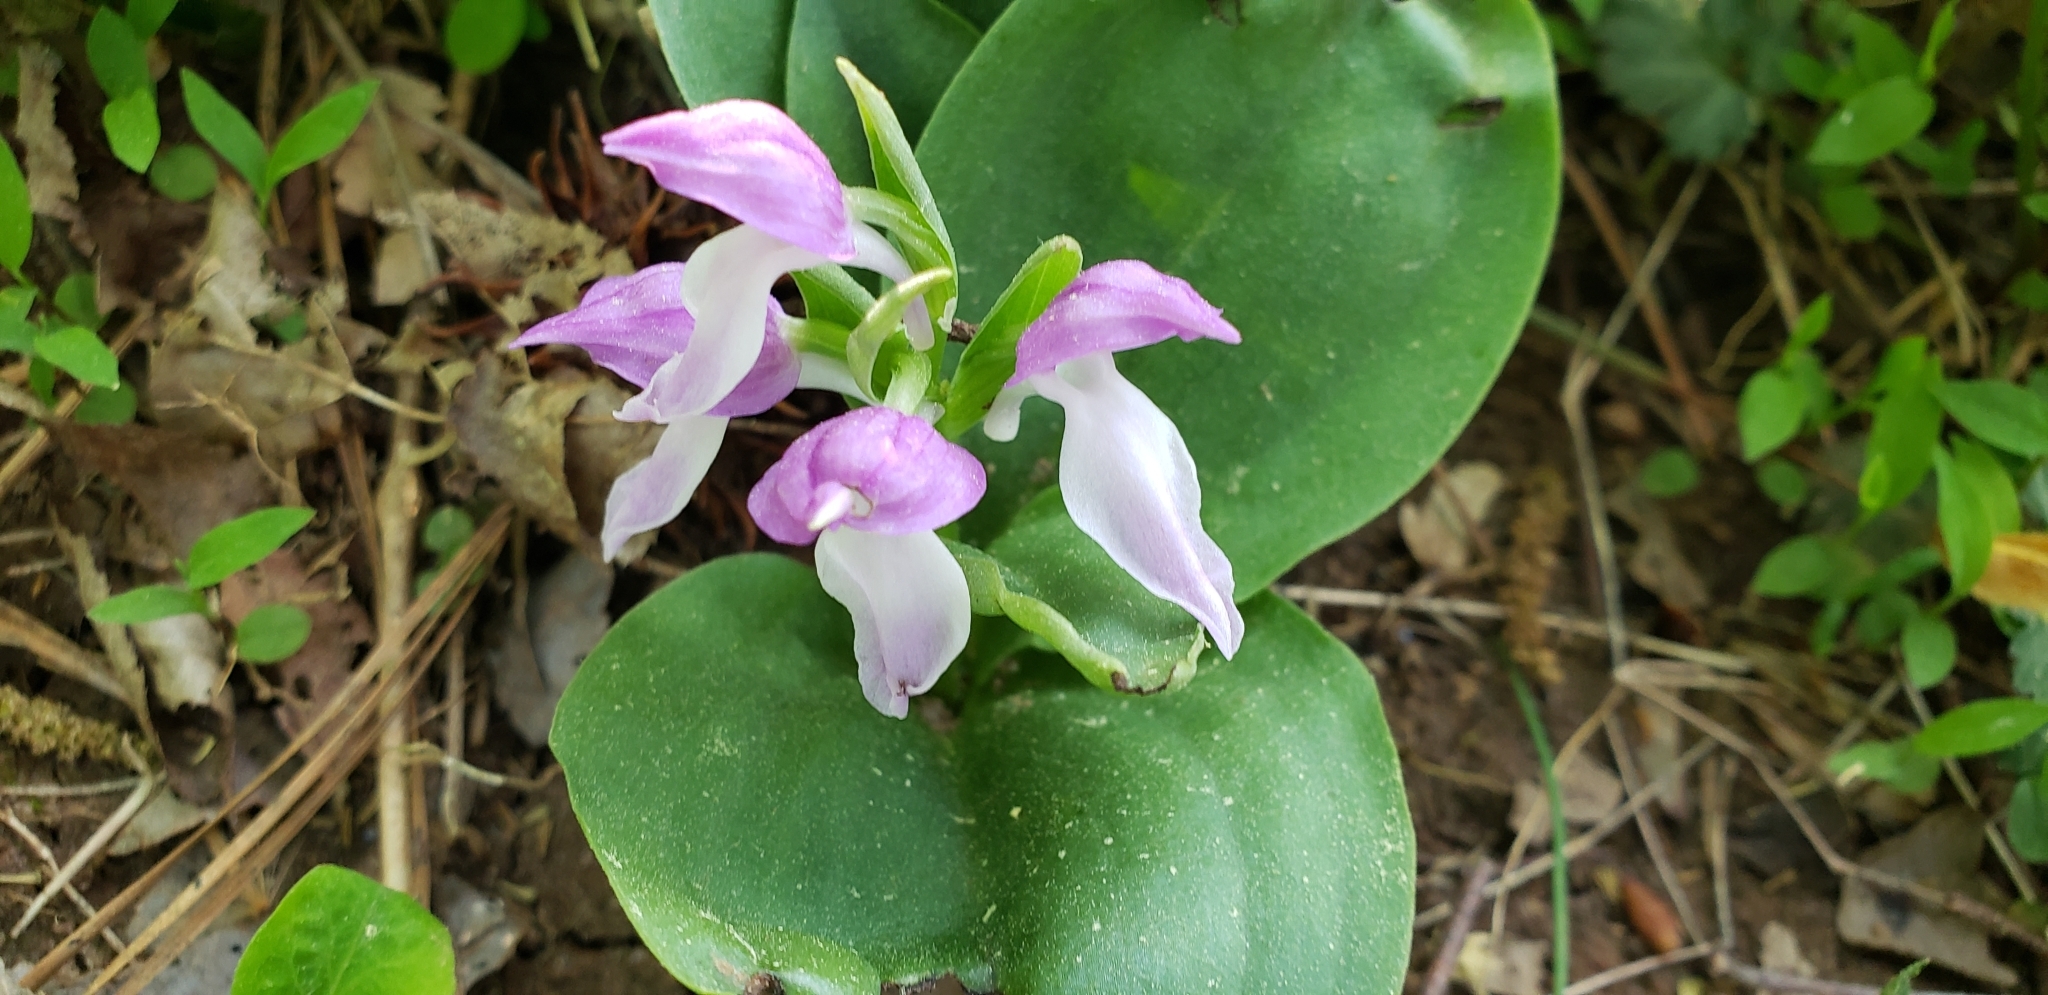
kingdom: Plantae
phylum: Tracheophyta
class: Liliopsida
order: Asparagales
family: Orchidaceae
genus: Galearis
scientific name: Galearis spectabilis
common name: Purple-hooded orchis
